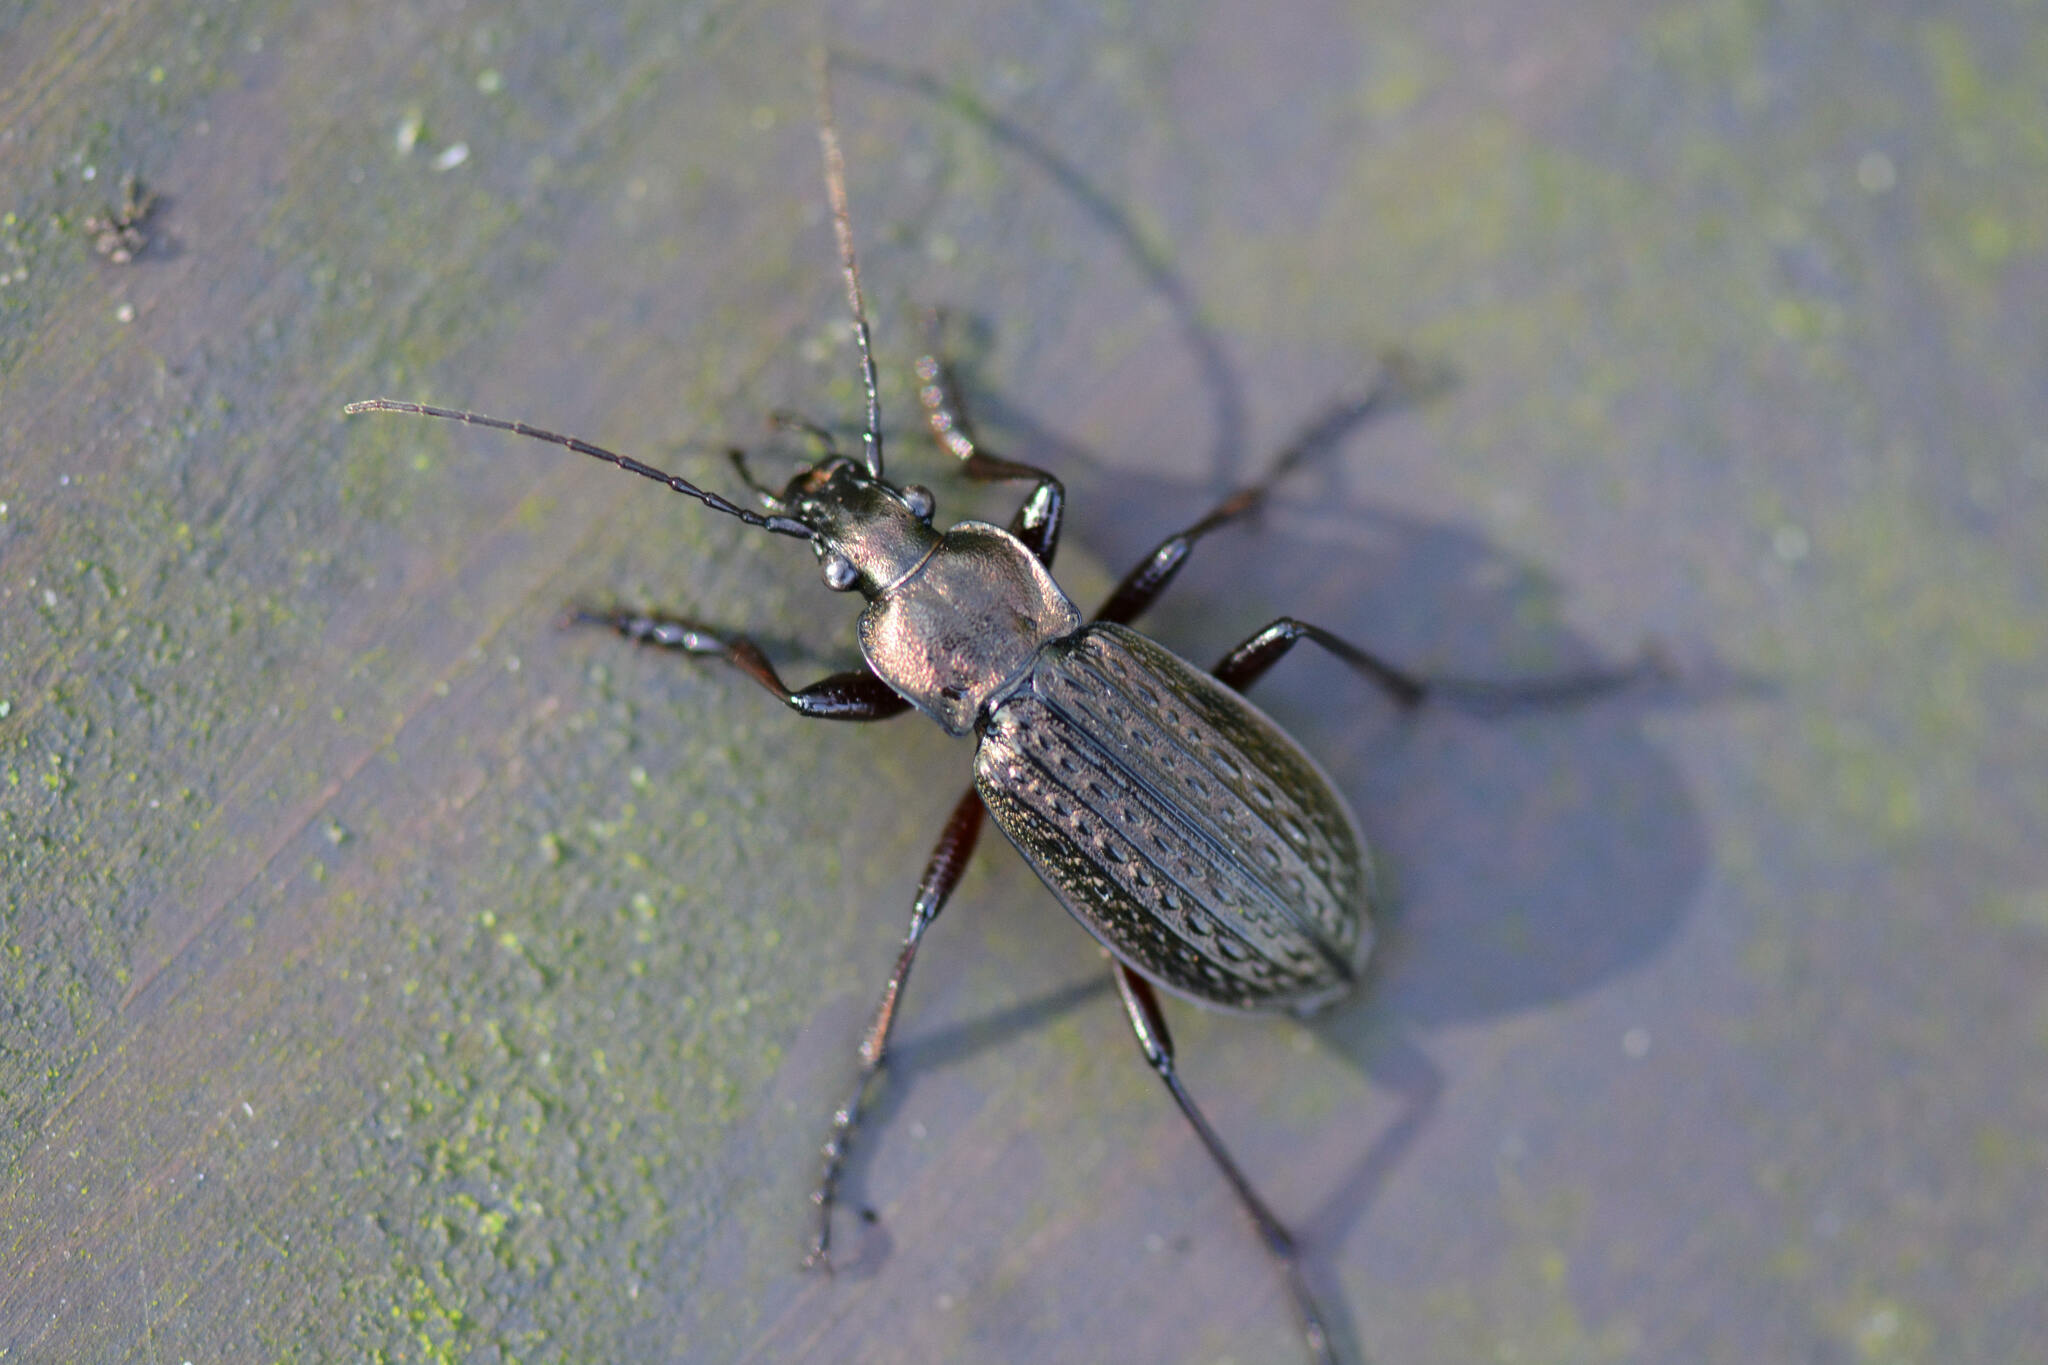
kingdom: Animalia
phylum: Arthropoda
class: Insecta
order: Coleoptera
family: Carabidae
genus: Carabus
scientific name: Carabus granulatus
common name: Granulate ground beetle
